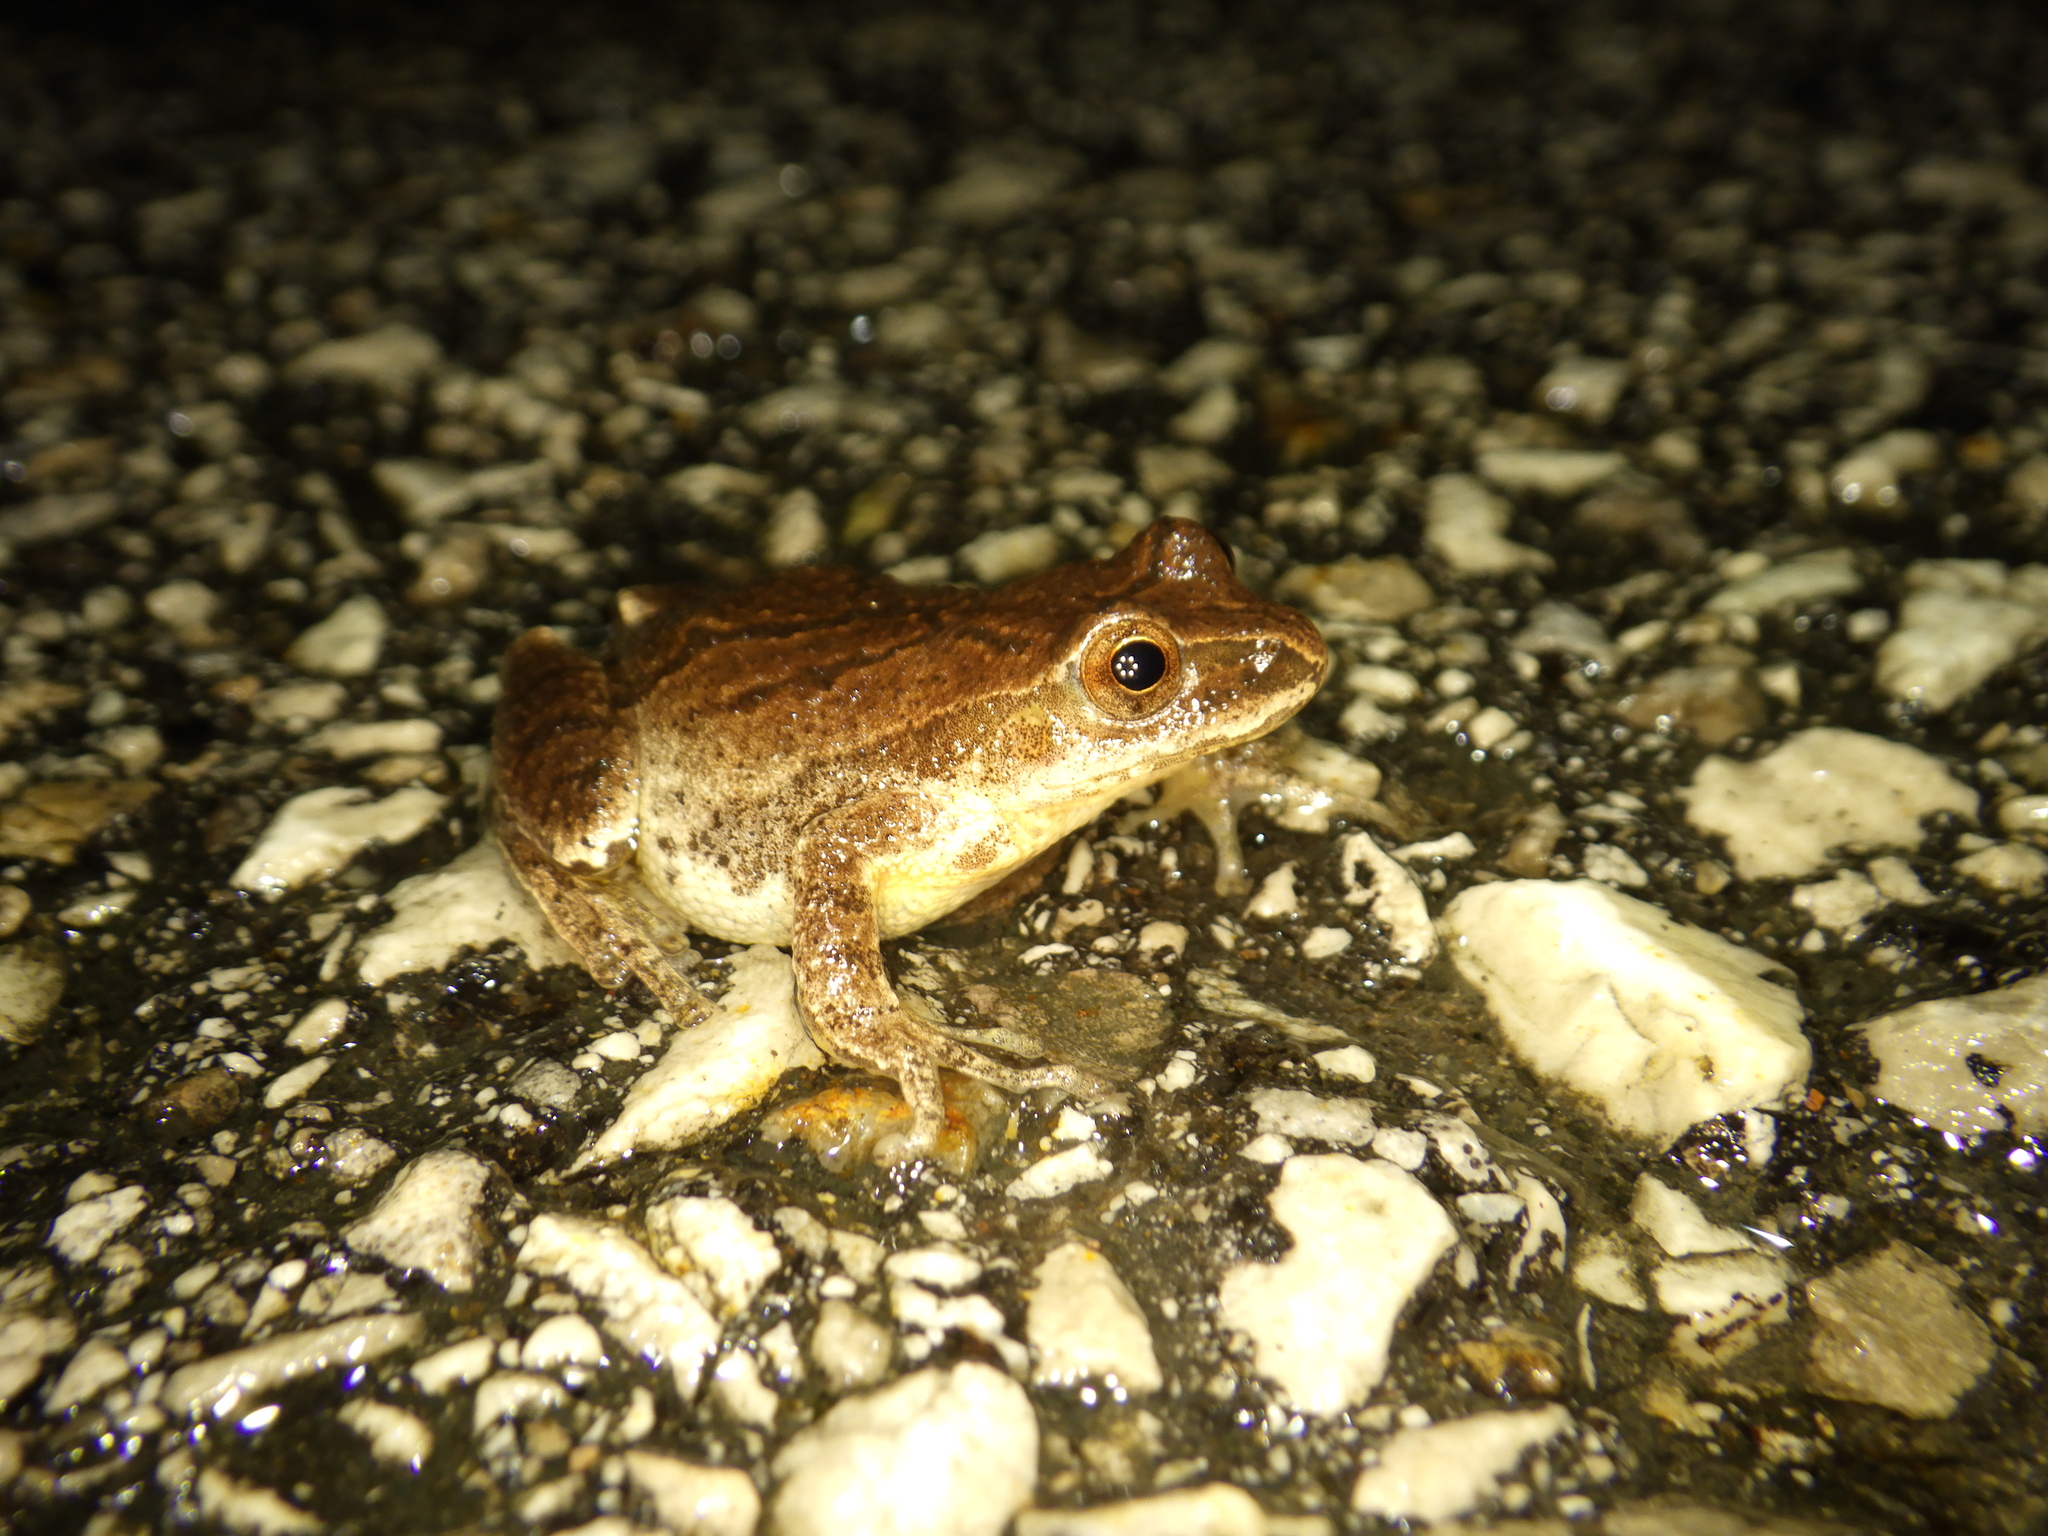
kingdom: Animalia
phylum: Chordata
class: Amphibia
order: Anura
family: Hylidae
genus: Pseudacris
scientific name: Pseudacris crucifer
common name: Spring peeper
